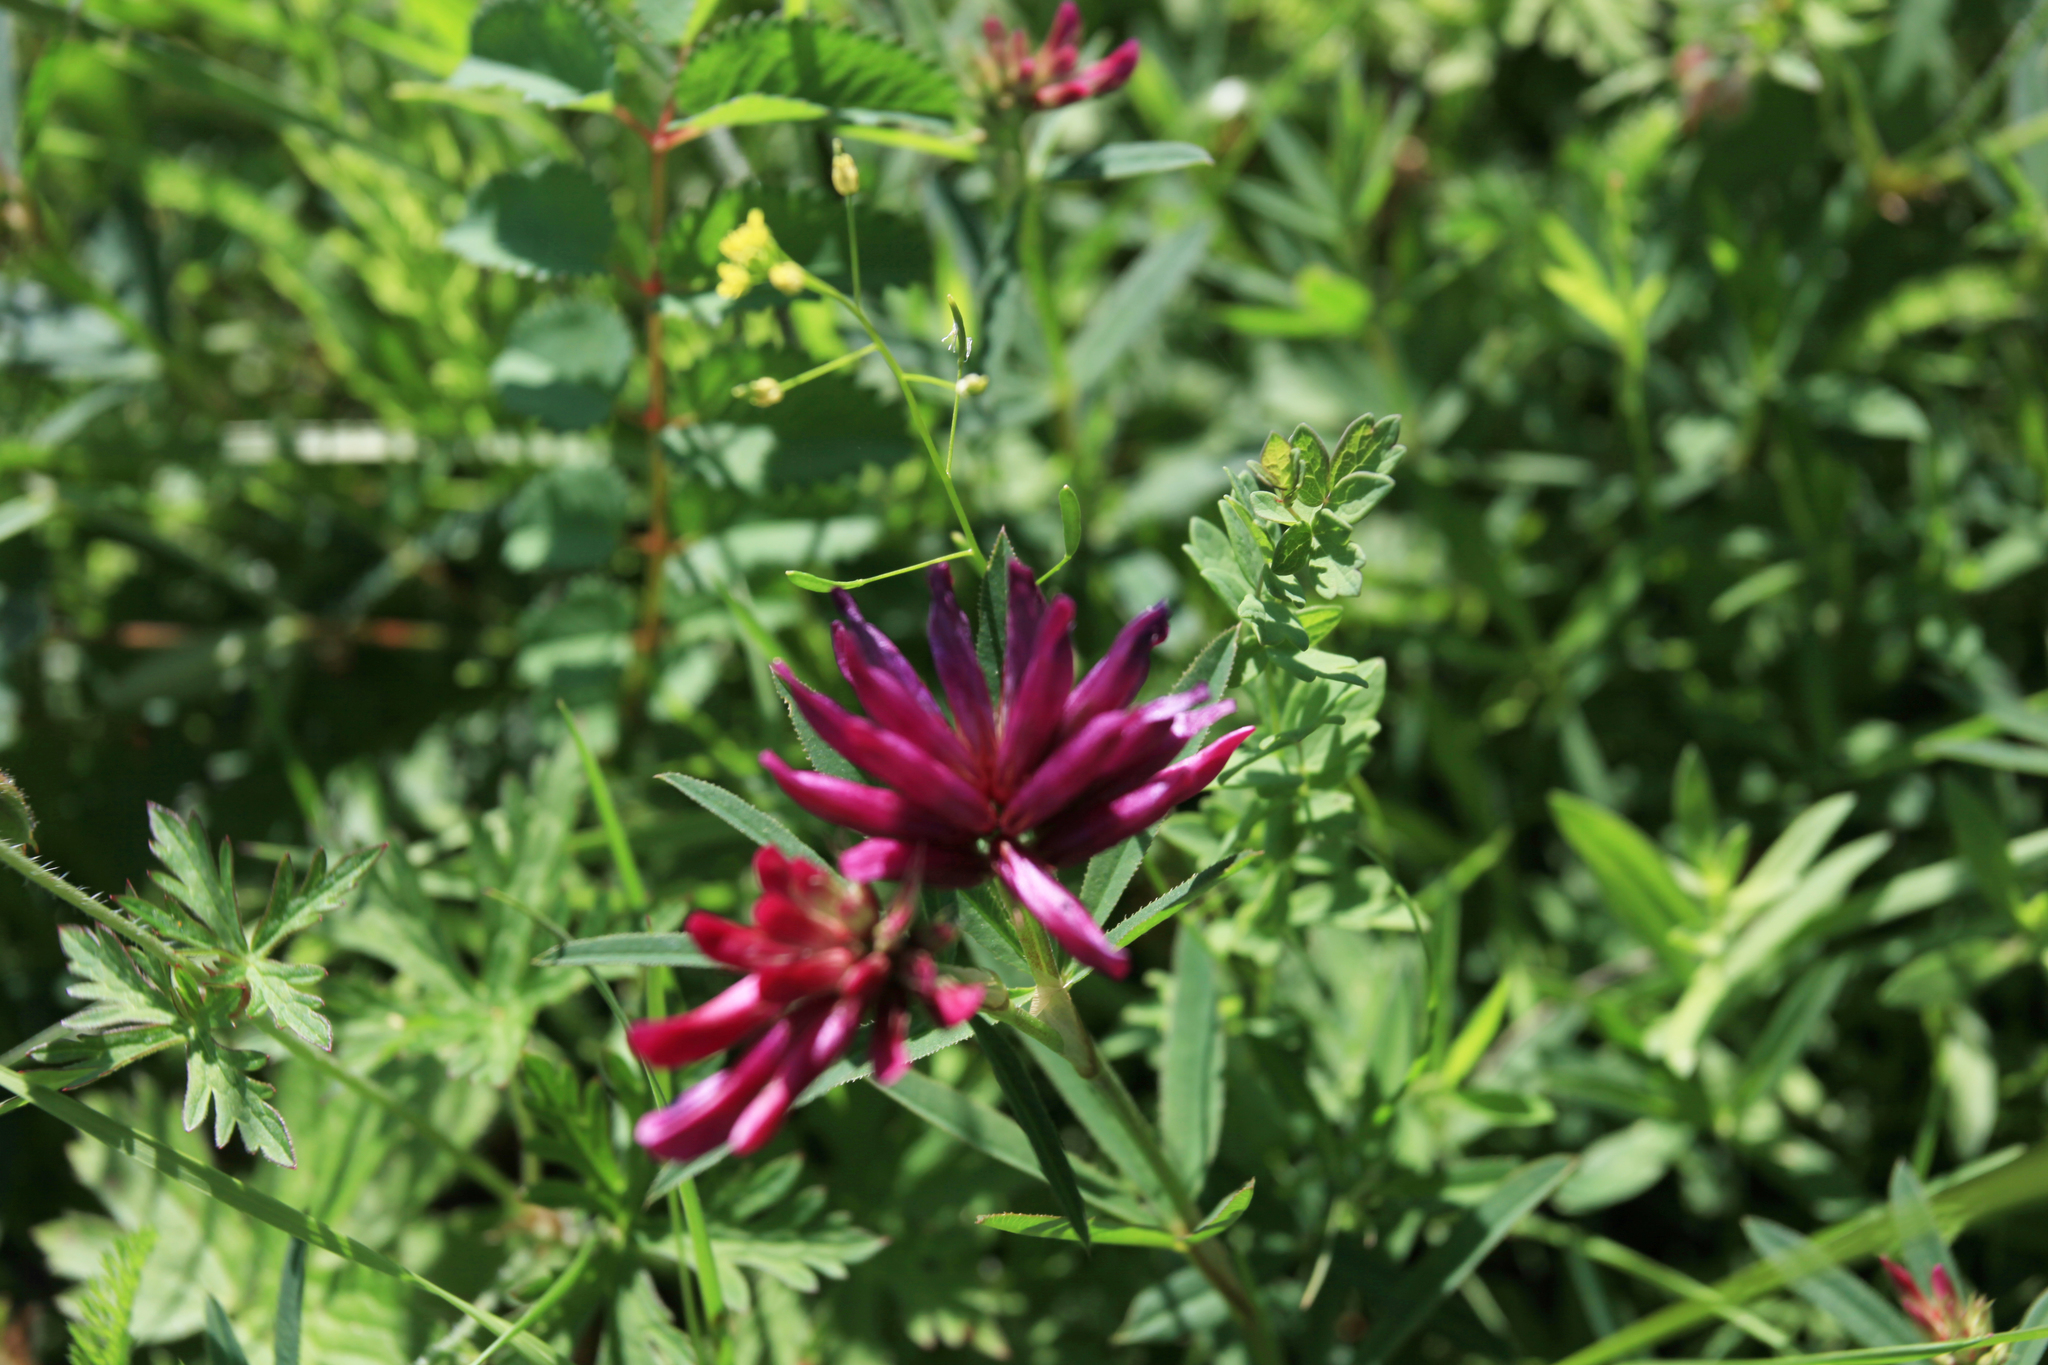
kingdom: Plantae
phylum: Tracheophyta
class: Magnoliopsida
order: Fabales
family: Fabaceae
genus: Trifolium
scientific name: Trifolium lupinaster
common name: Lupine clover
